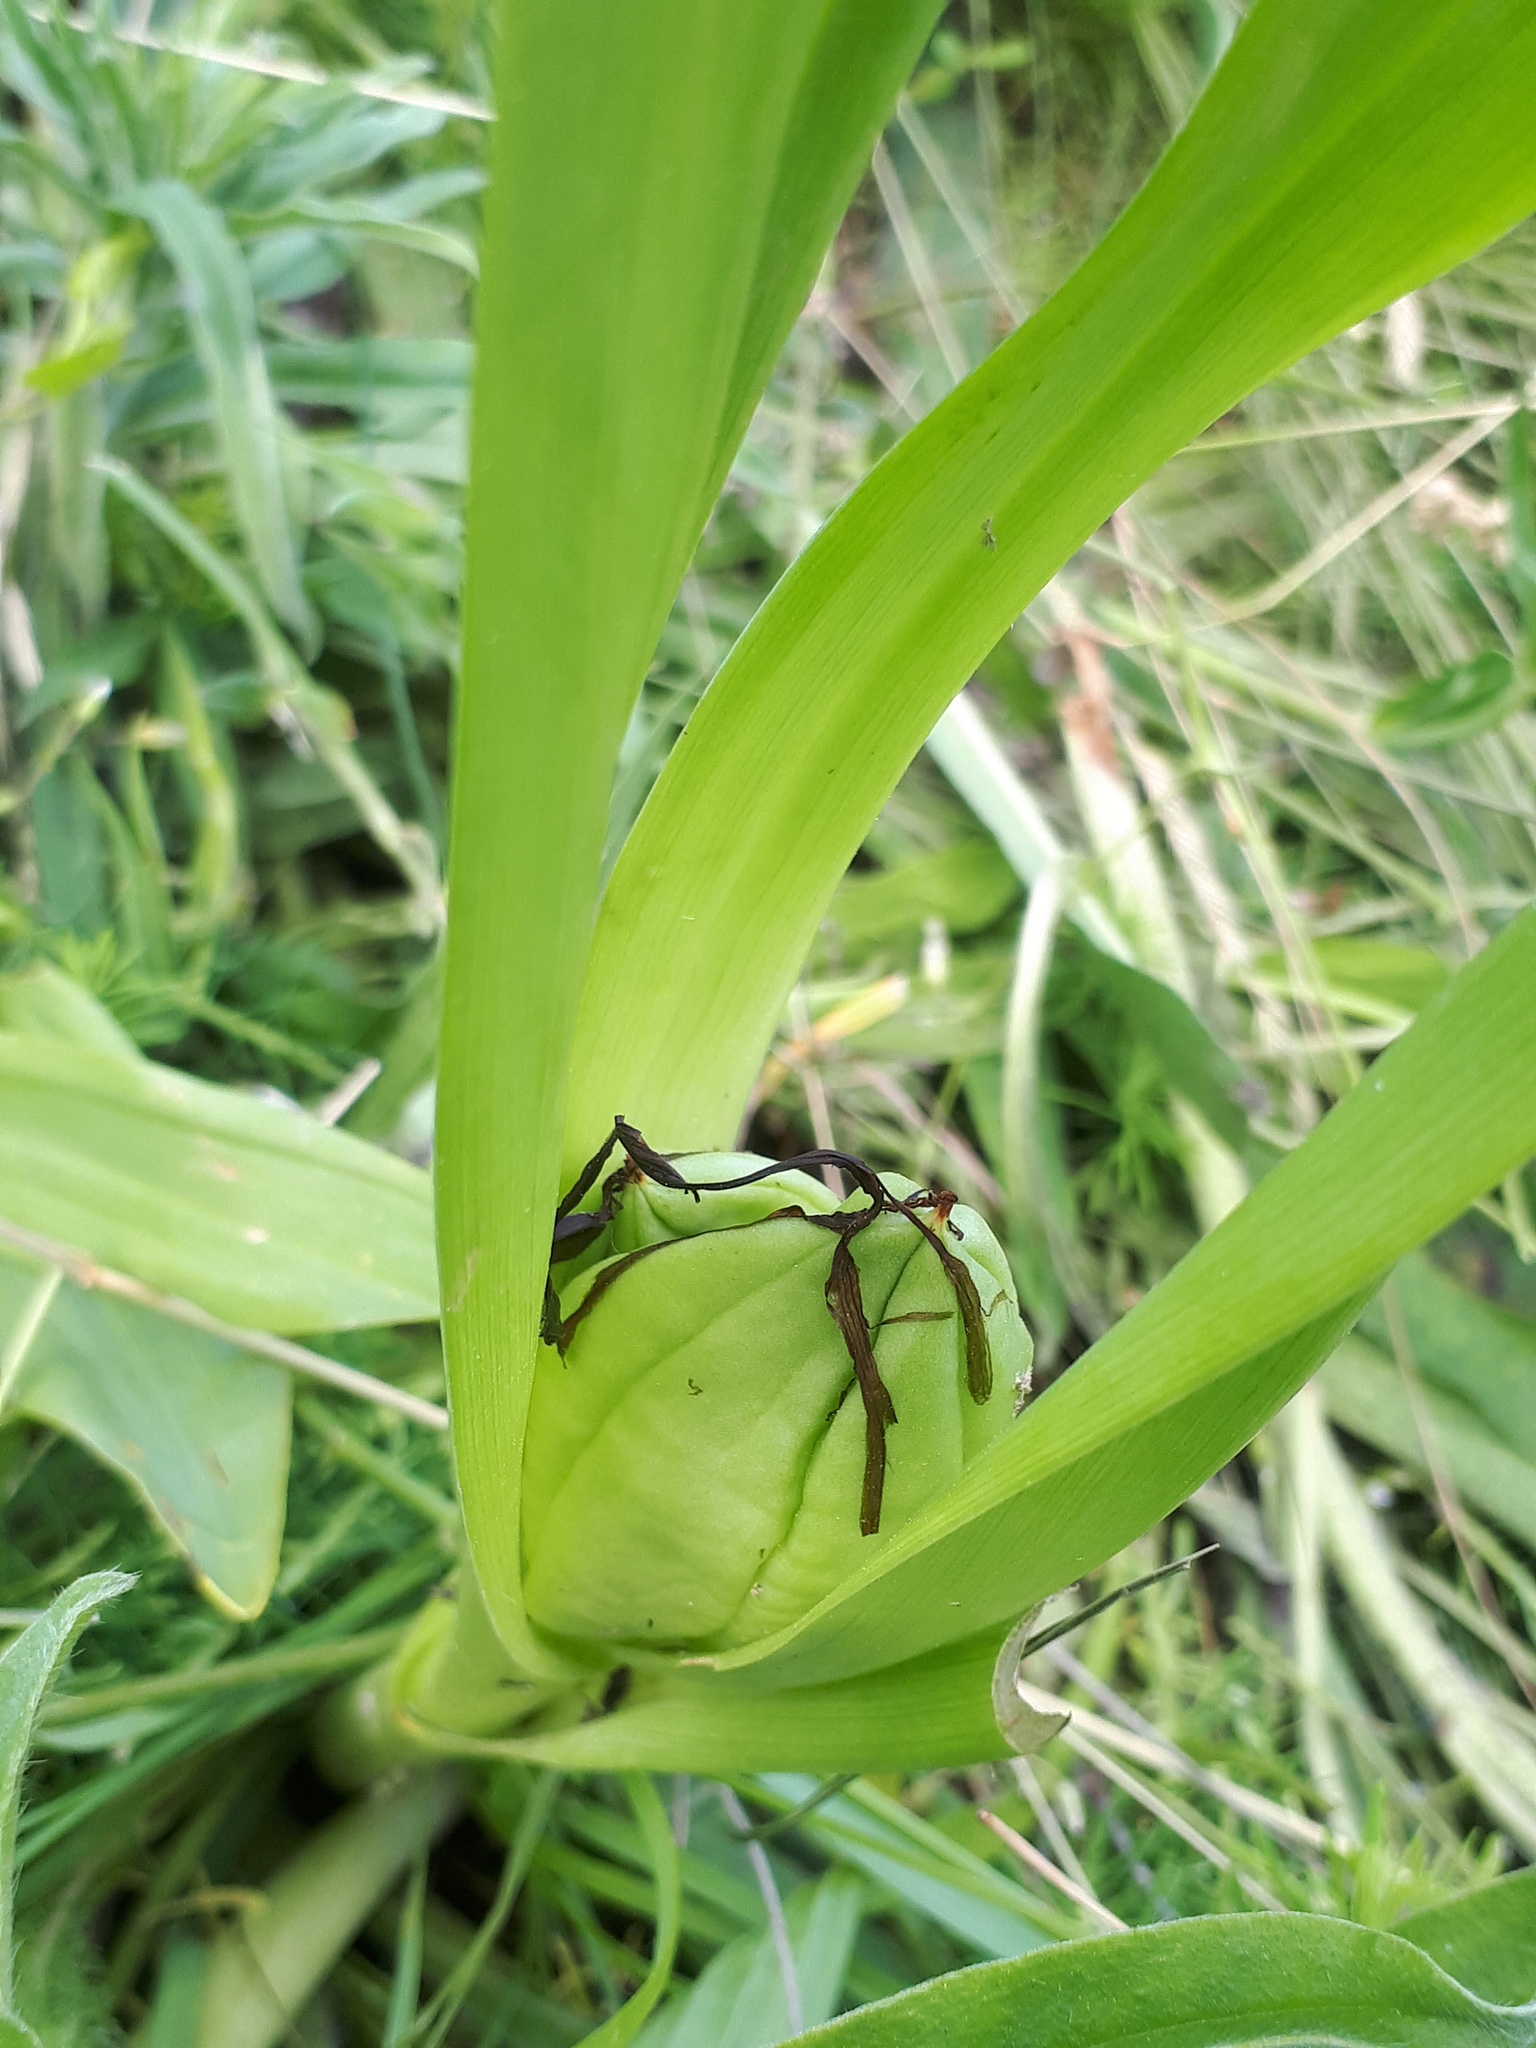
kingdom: Plantae
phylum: Tracheophyta
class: Liliopsida
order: Liliales
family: Colchicaceae
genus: Colchicum
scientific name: Colchicum autumnale
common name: Autumn crocus
